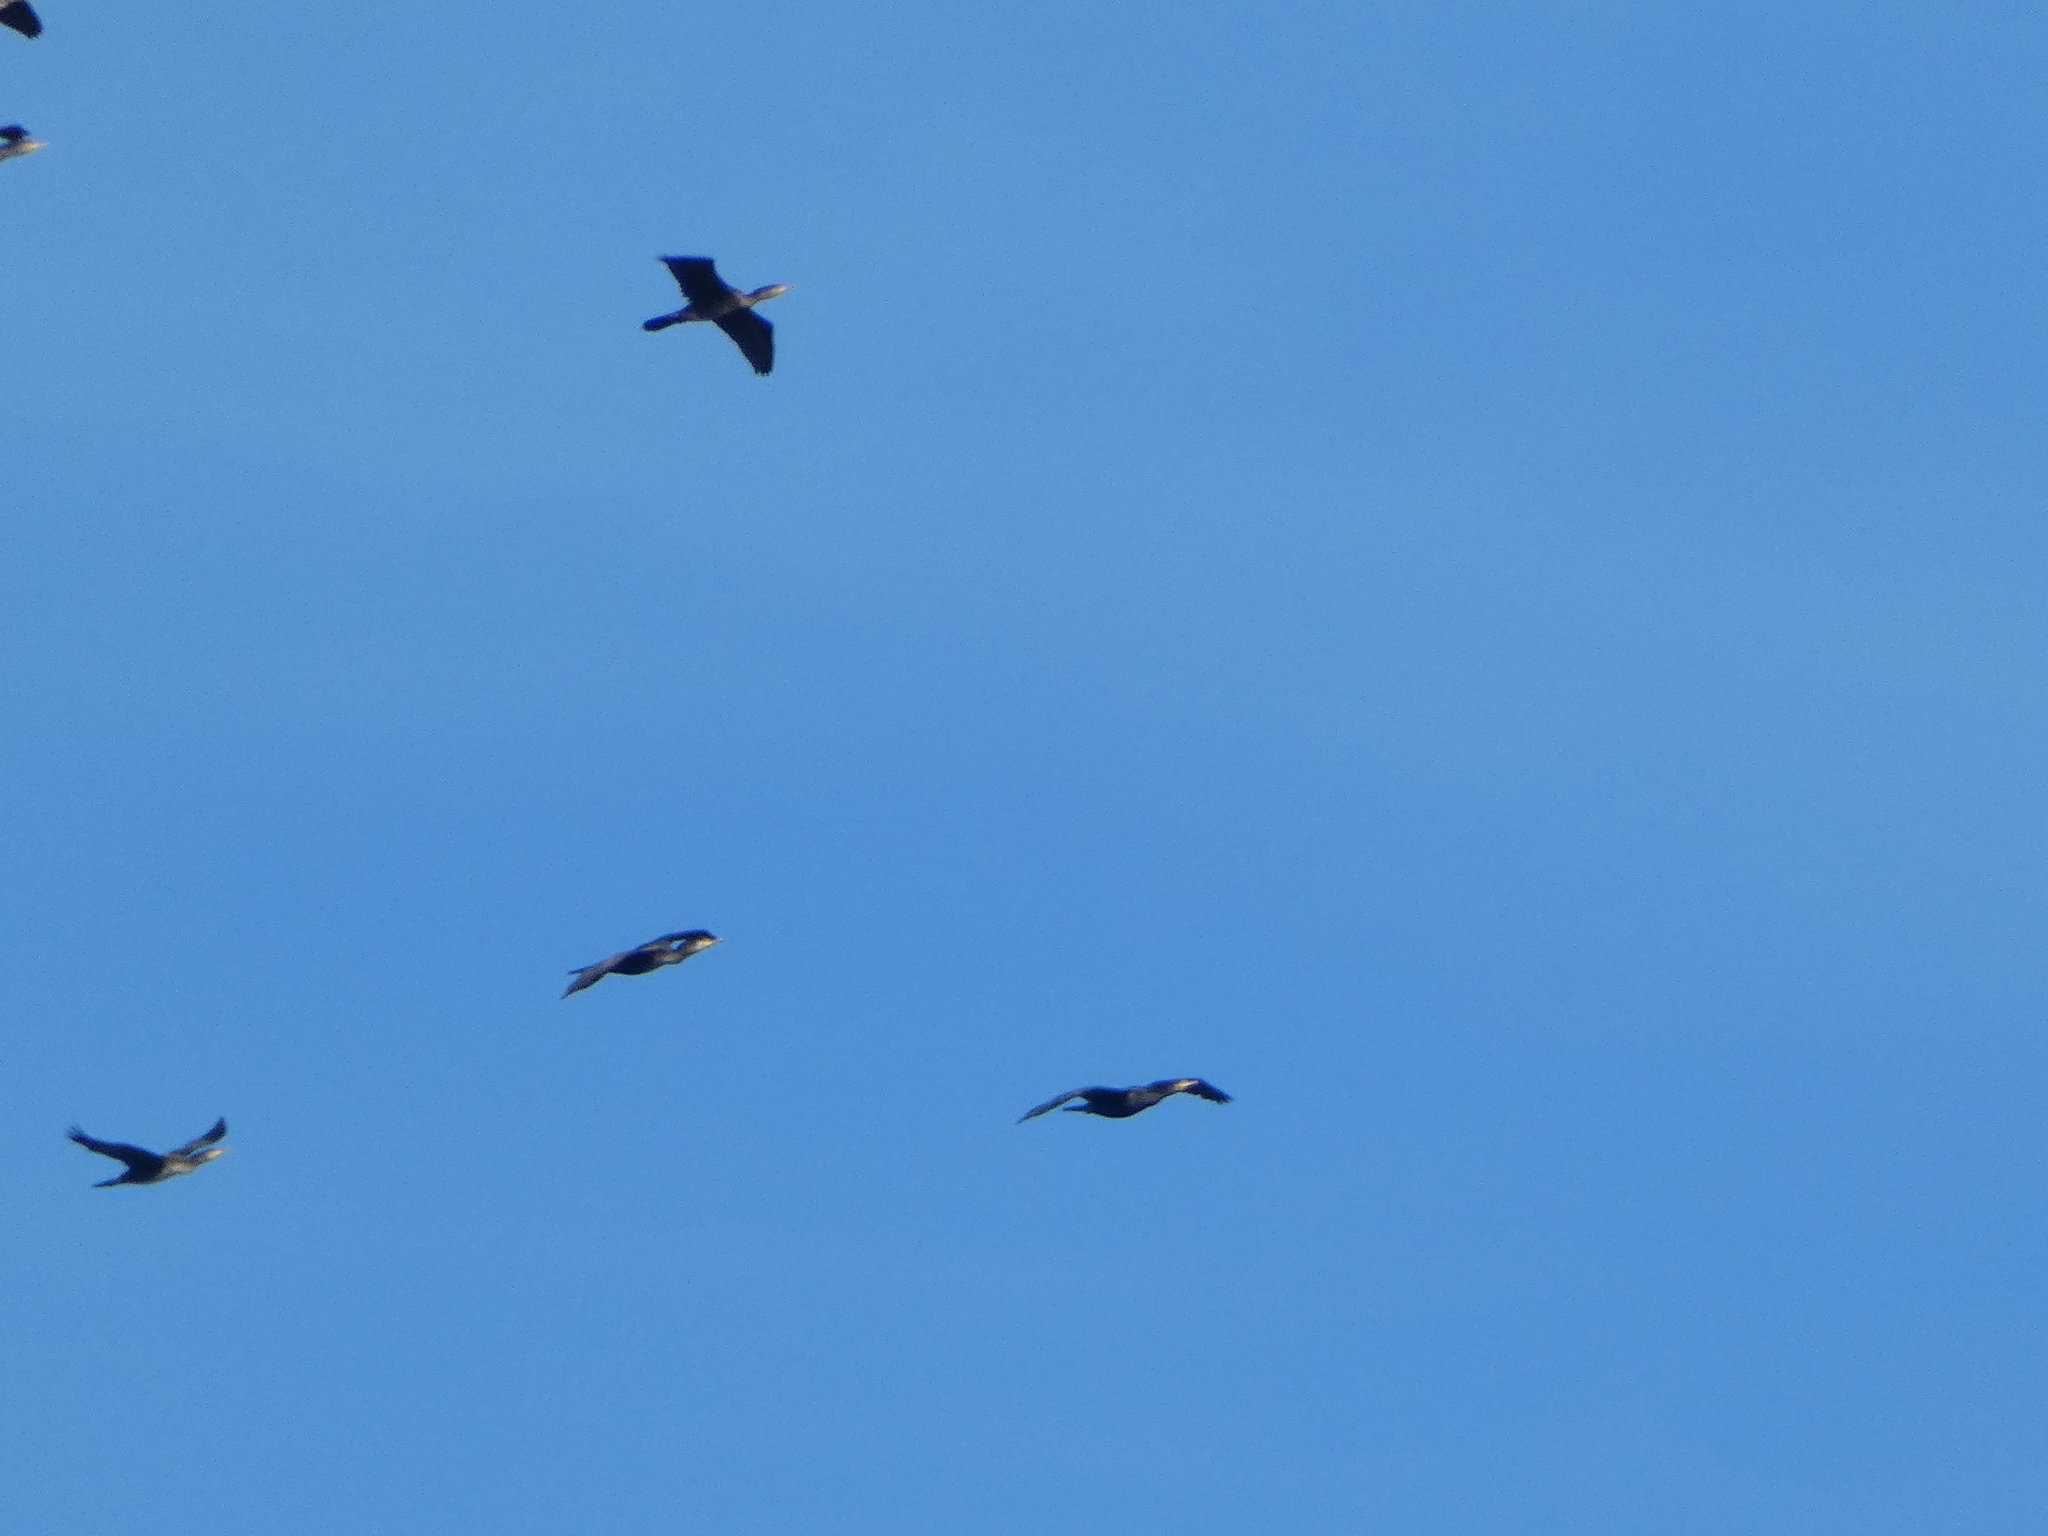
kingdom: Animalia
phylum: Chordata
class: Aves
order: Suliformes
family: Phalacrocoracidae
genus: Phalacrocorax
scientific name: Phalacrocorax carbo
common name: Great cormorant
